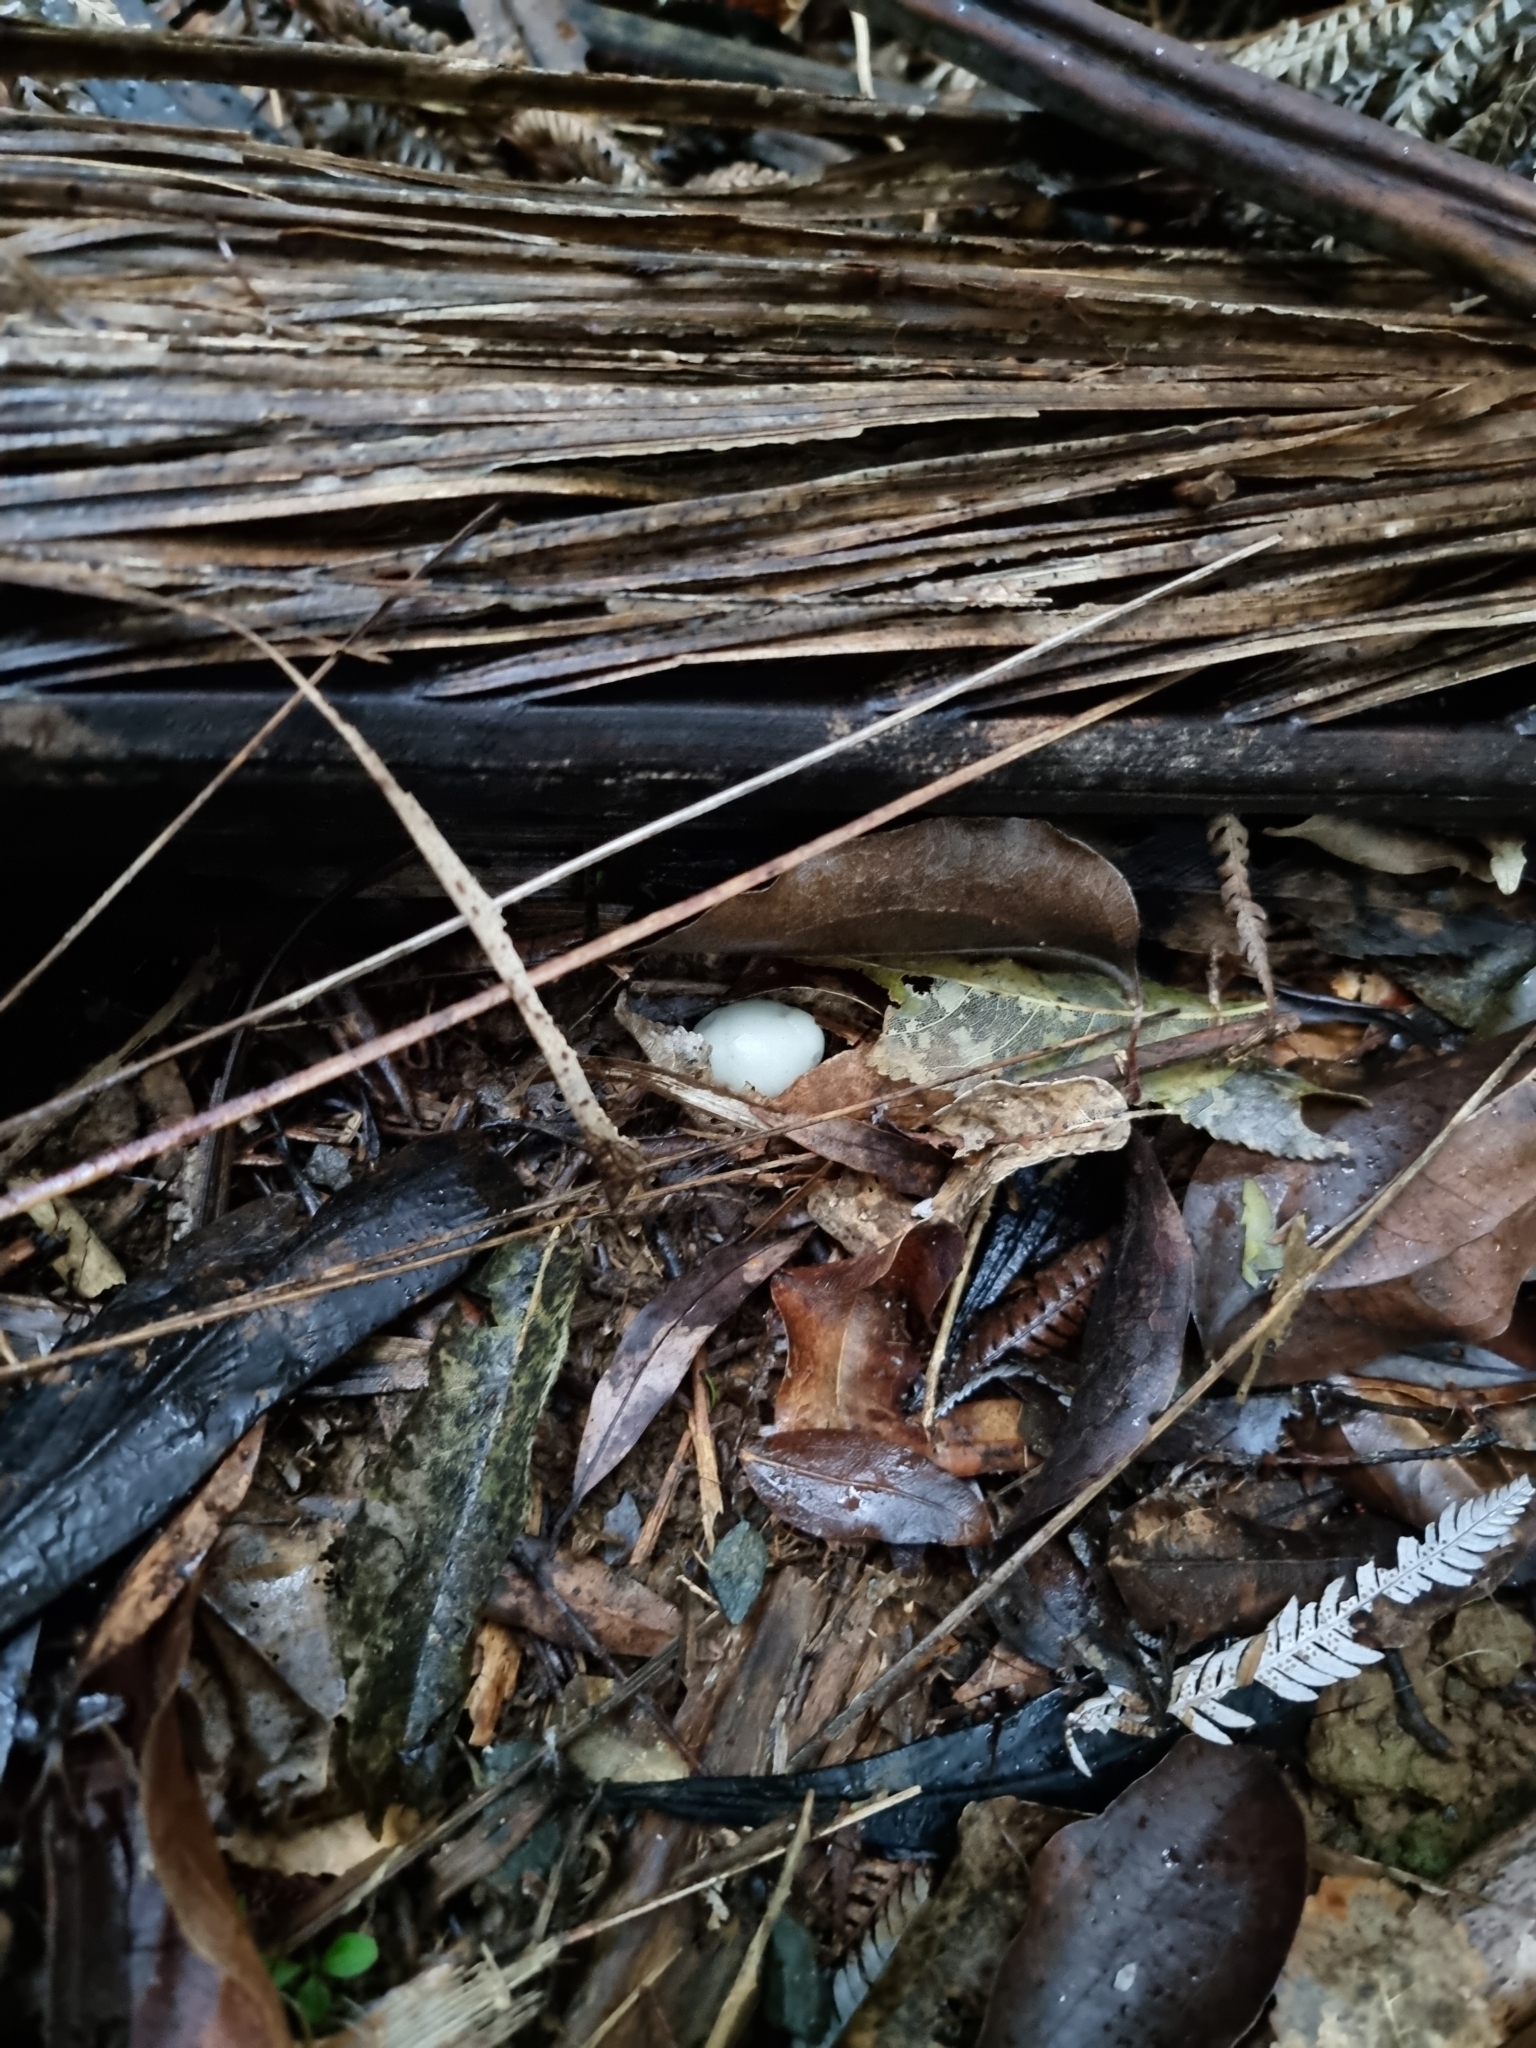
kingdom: Fungi
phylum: Basidiomycota
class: Agaricomycetes
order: Agaricales
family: Hymenogastraceae
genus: Psilocybe
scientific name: Psilocybe weraroa
